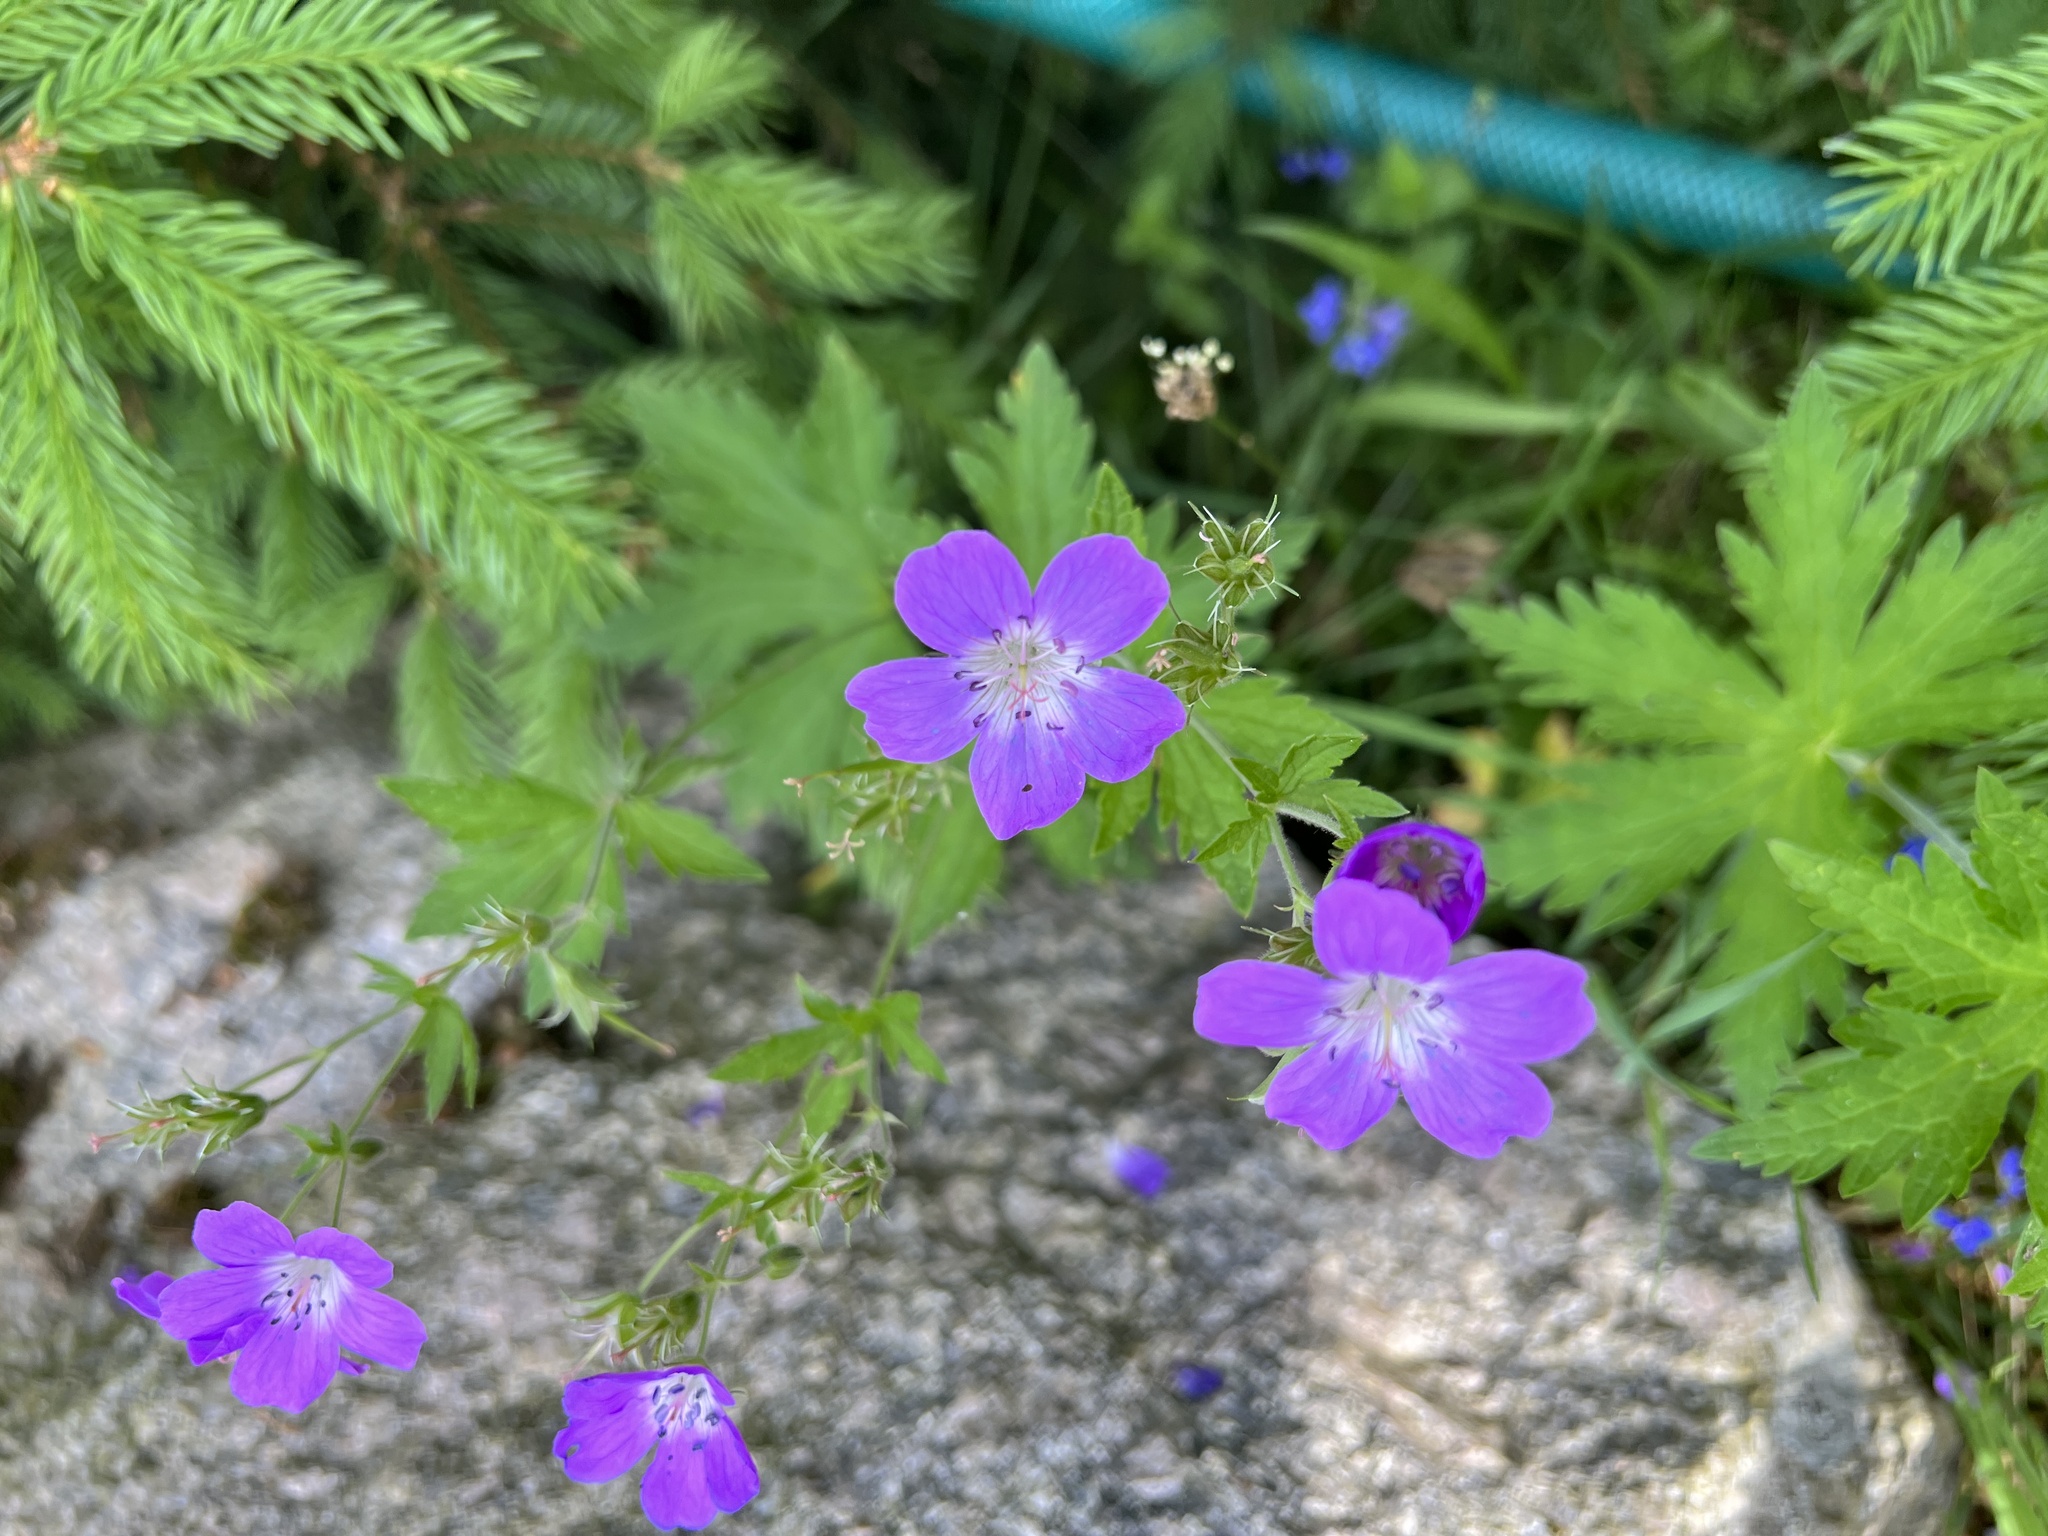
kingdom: Plantae
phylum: Tracheophyta
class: Magnoliopsida
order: Geraniales
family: Geraniaceae
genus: Geranium
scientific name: Geranium sylvaticum
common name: Wood crane's-bill
